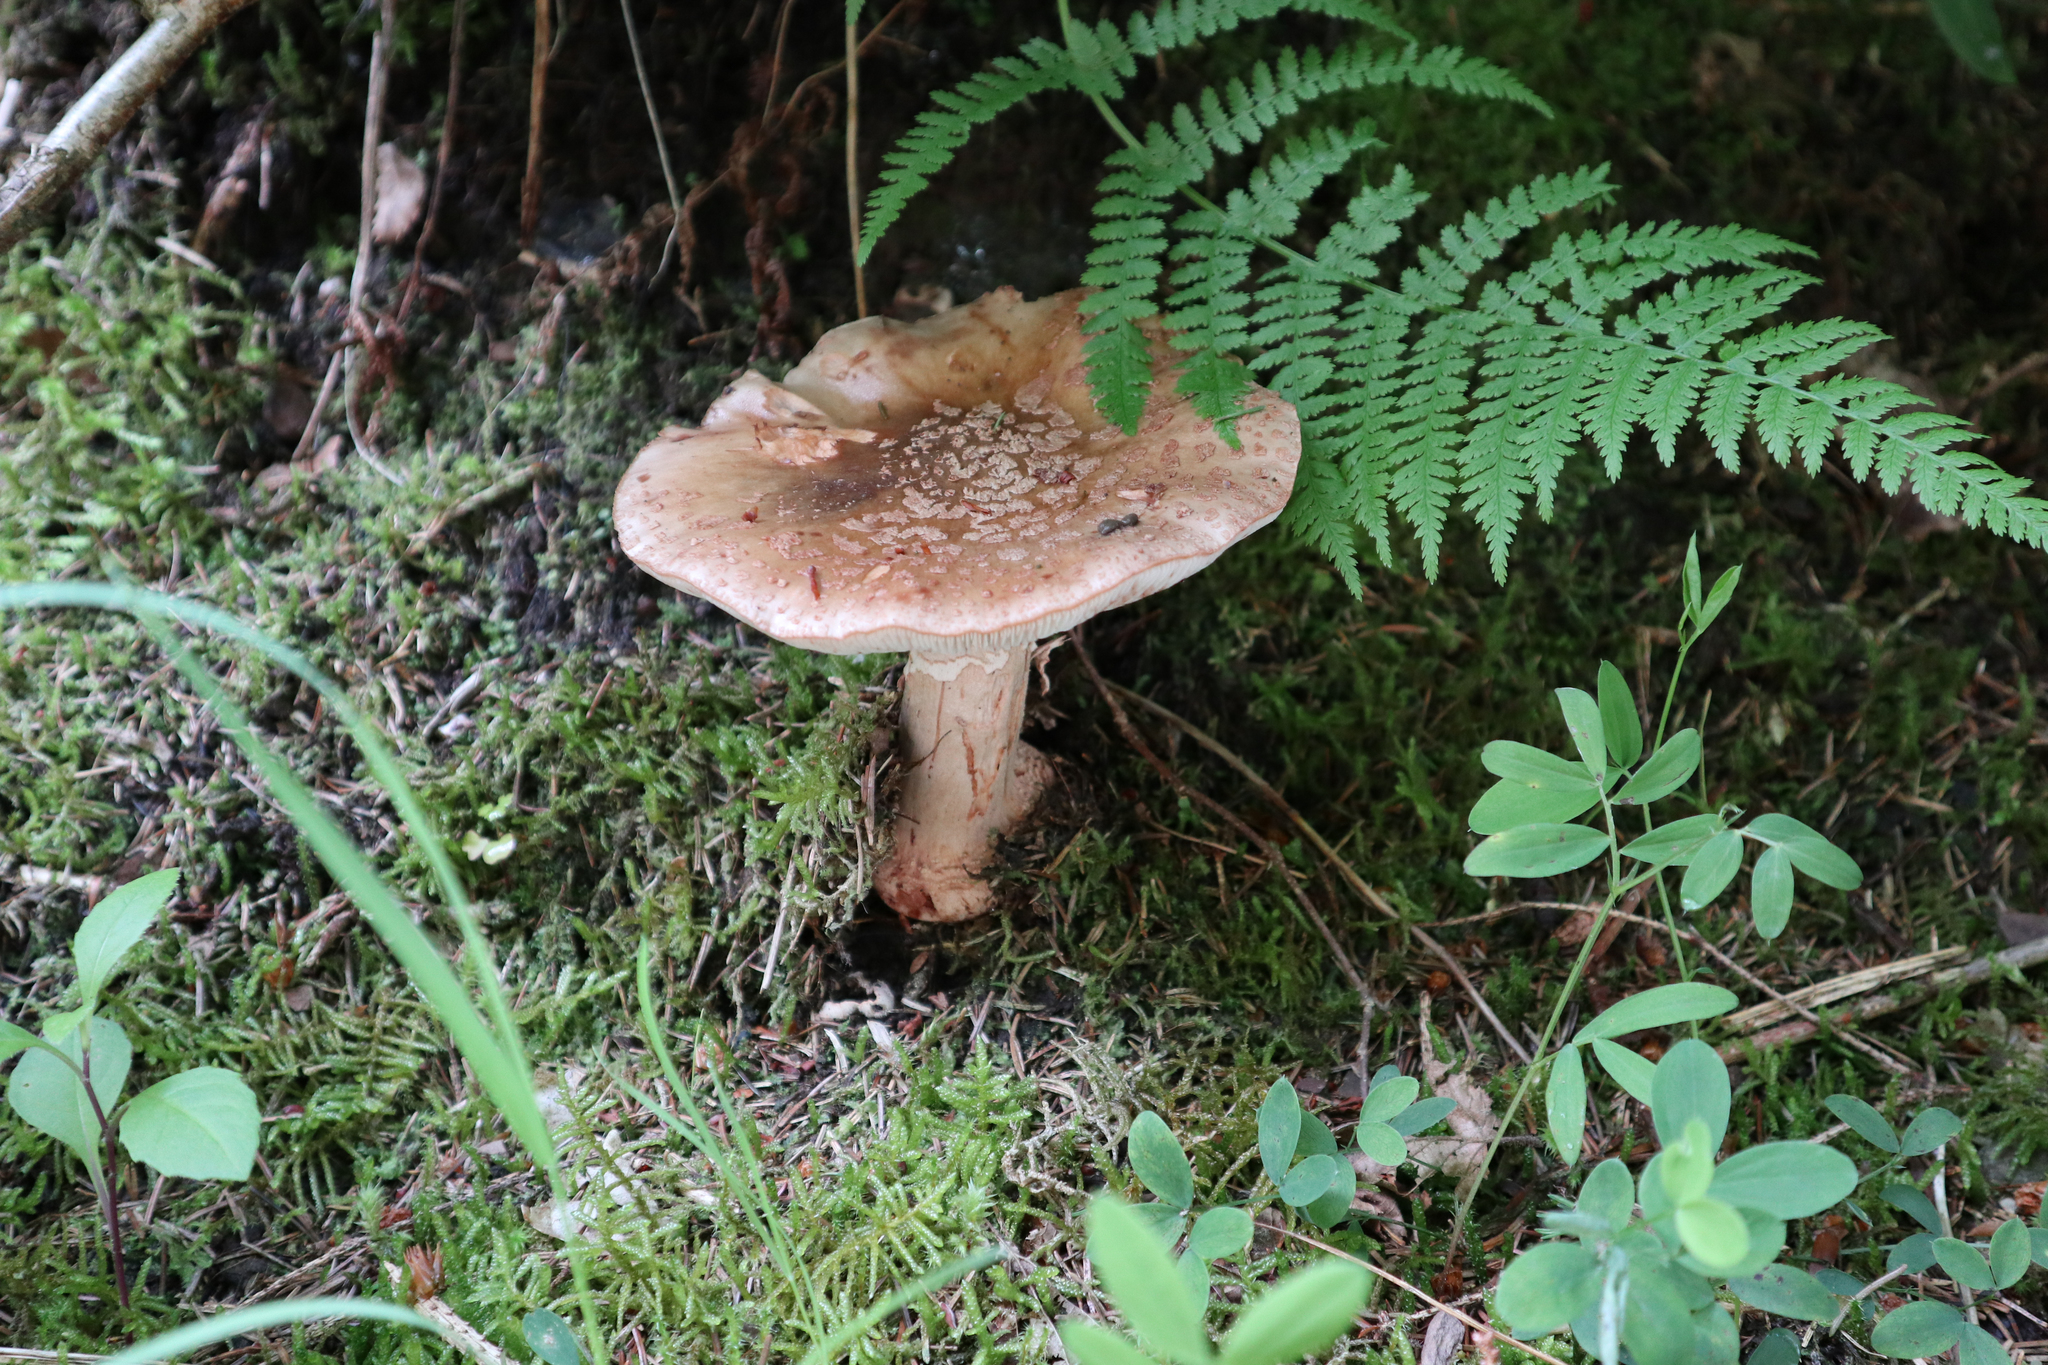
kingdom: Fungi
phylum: Basidiomycota
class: Agaricomycetes
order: Agaricales
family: Amanitaceae
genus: Amanita
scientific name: Amanita rubescens
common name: Blusher
